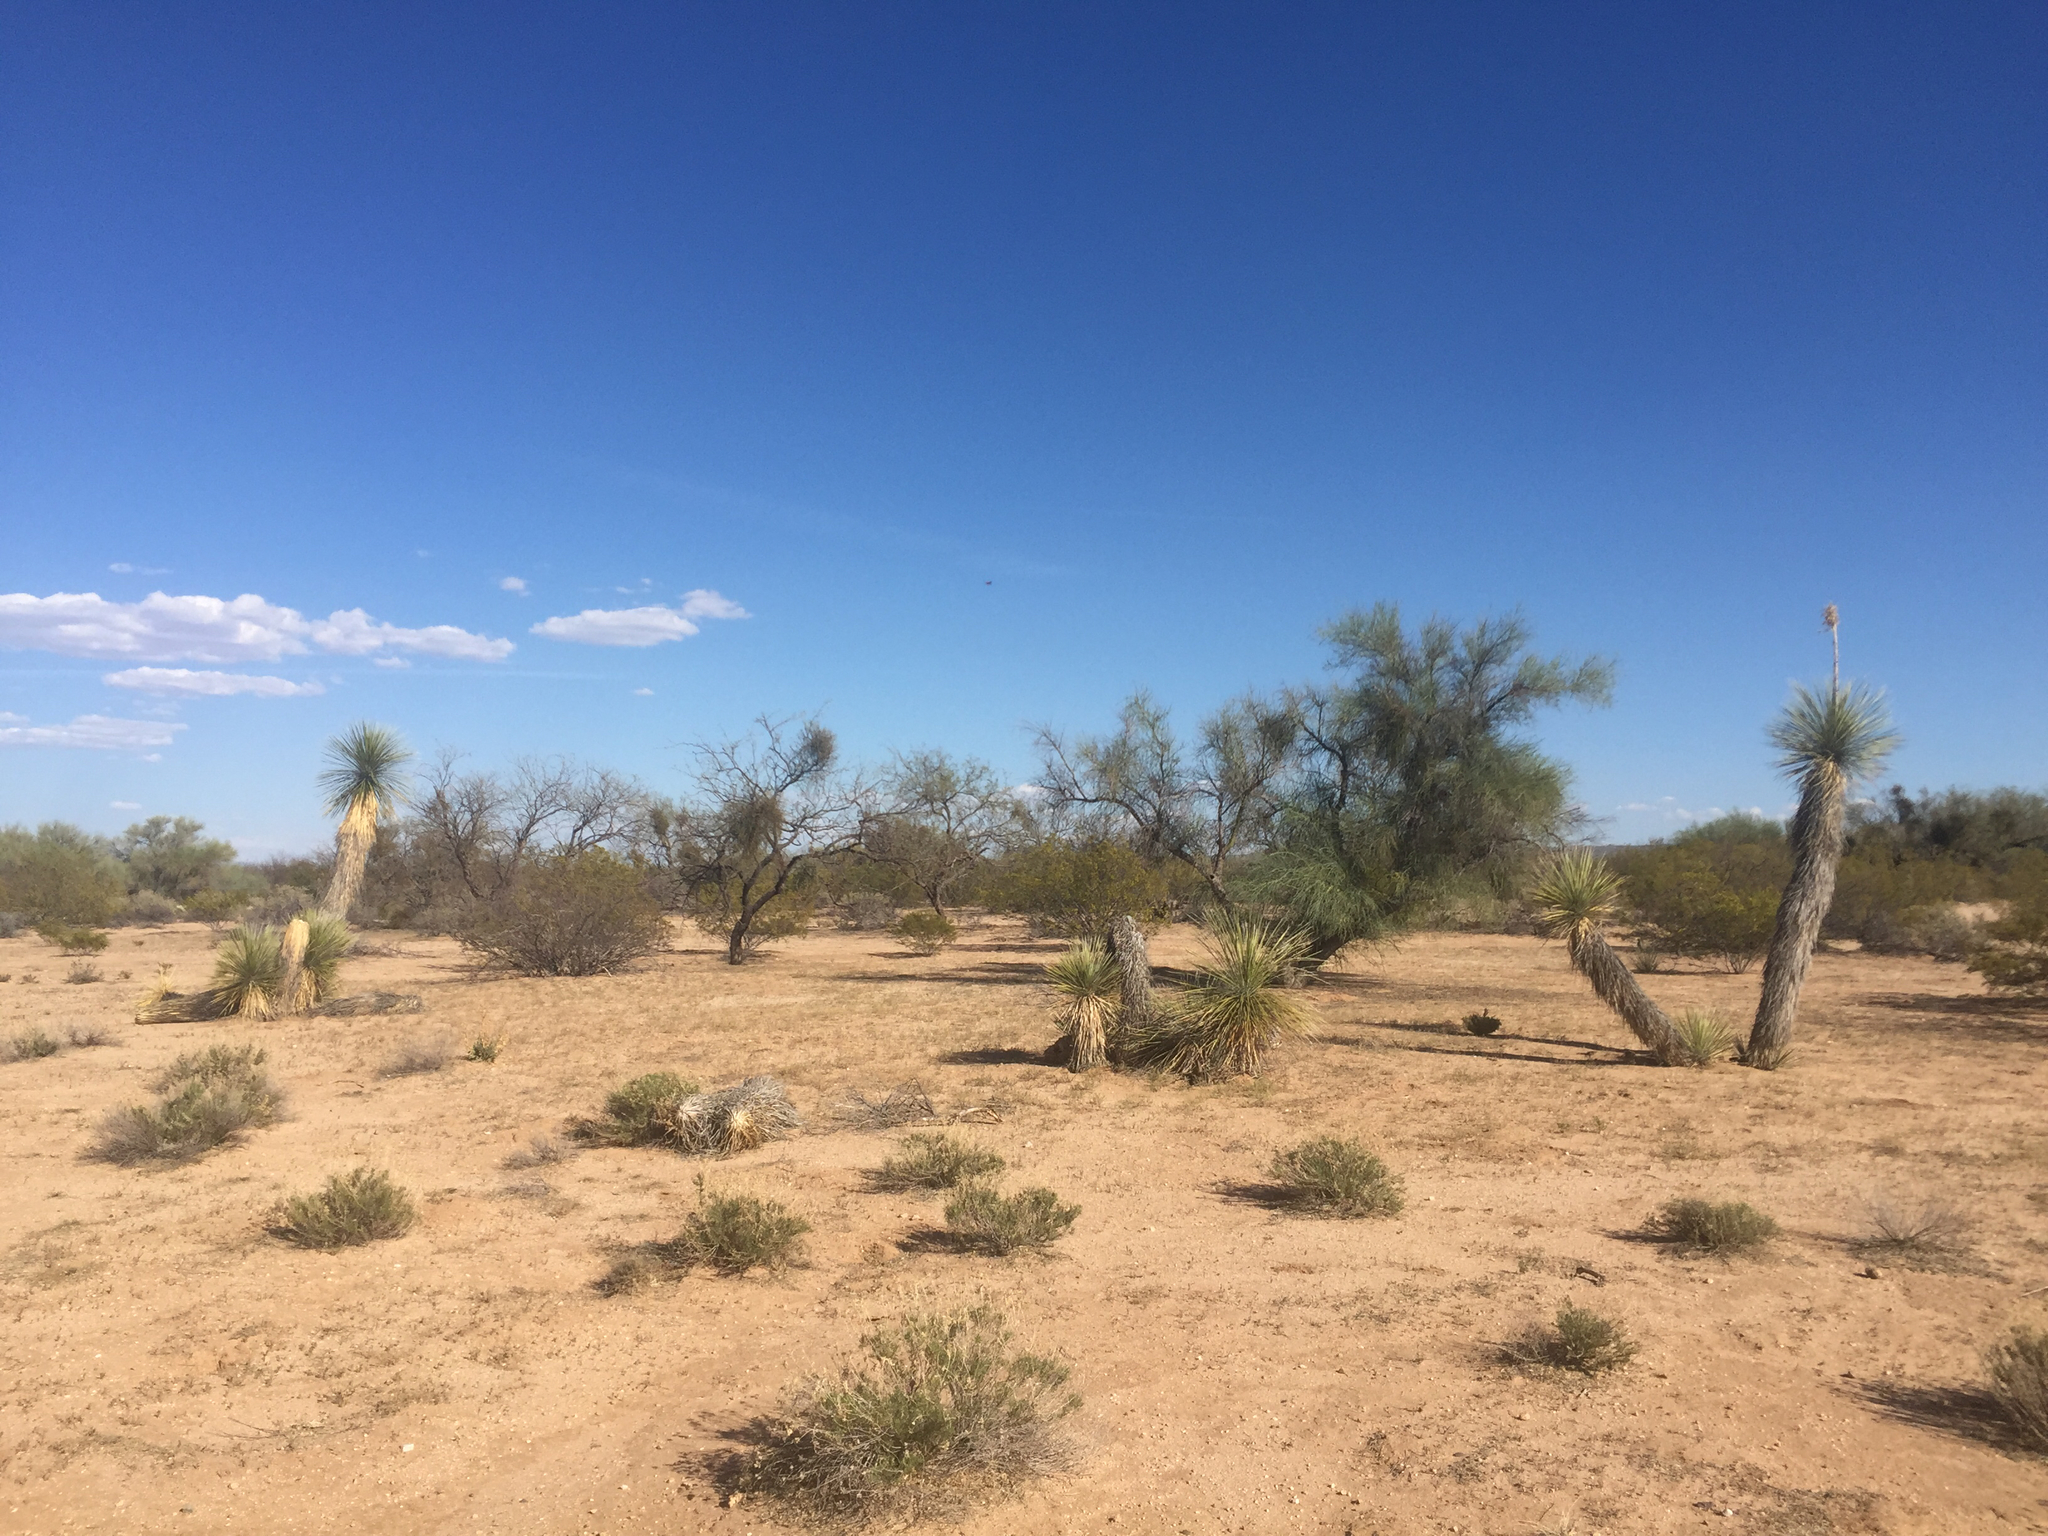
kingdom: Plantae
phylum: Tracheophyta
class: Liliopsida
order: Asparagales
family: Asparagaceae
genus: Yucca
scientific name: Yucca elata
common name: Palmella
